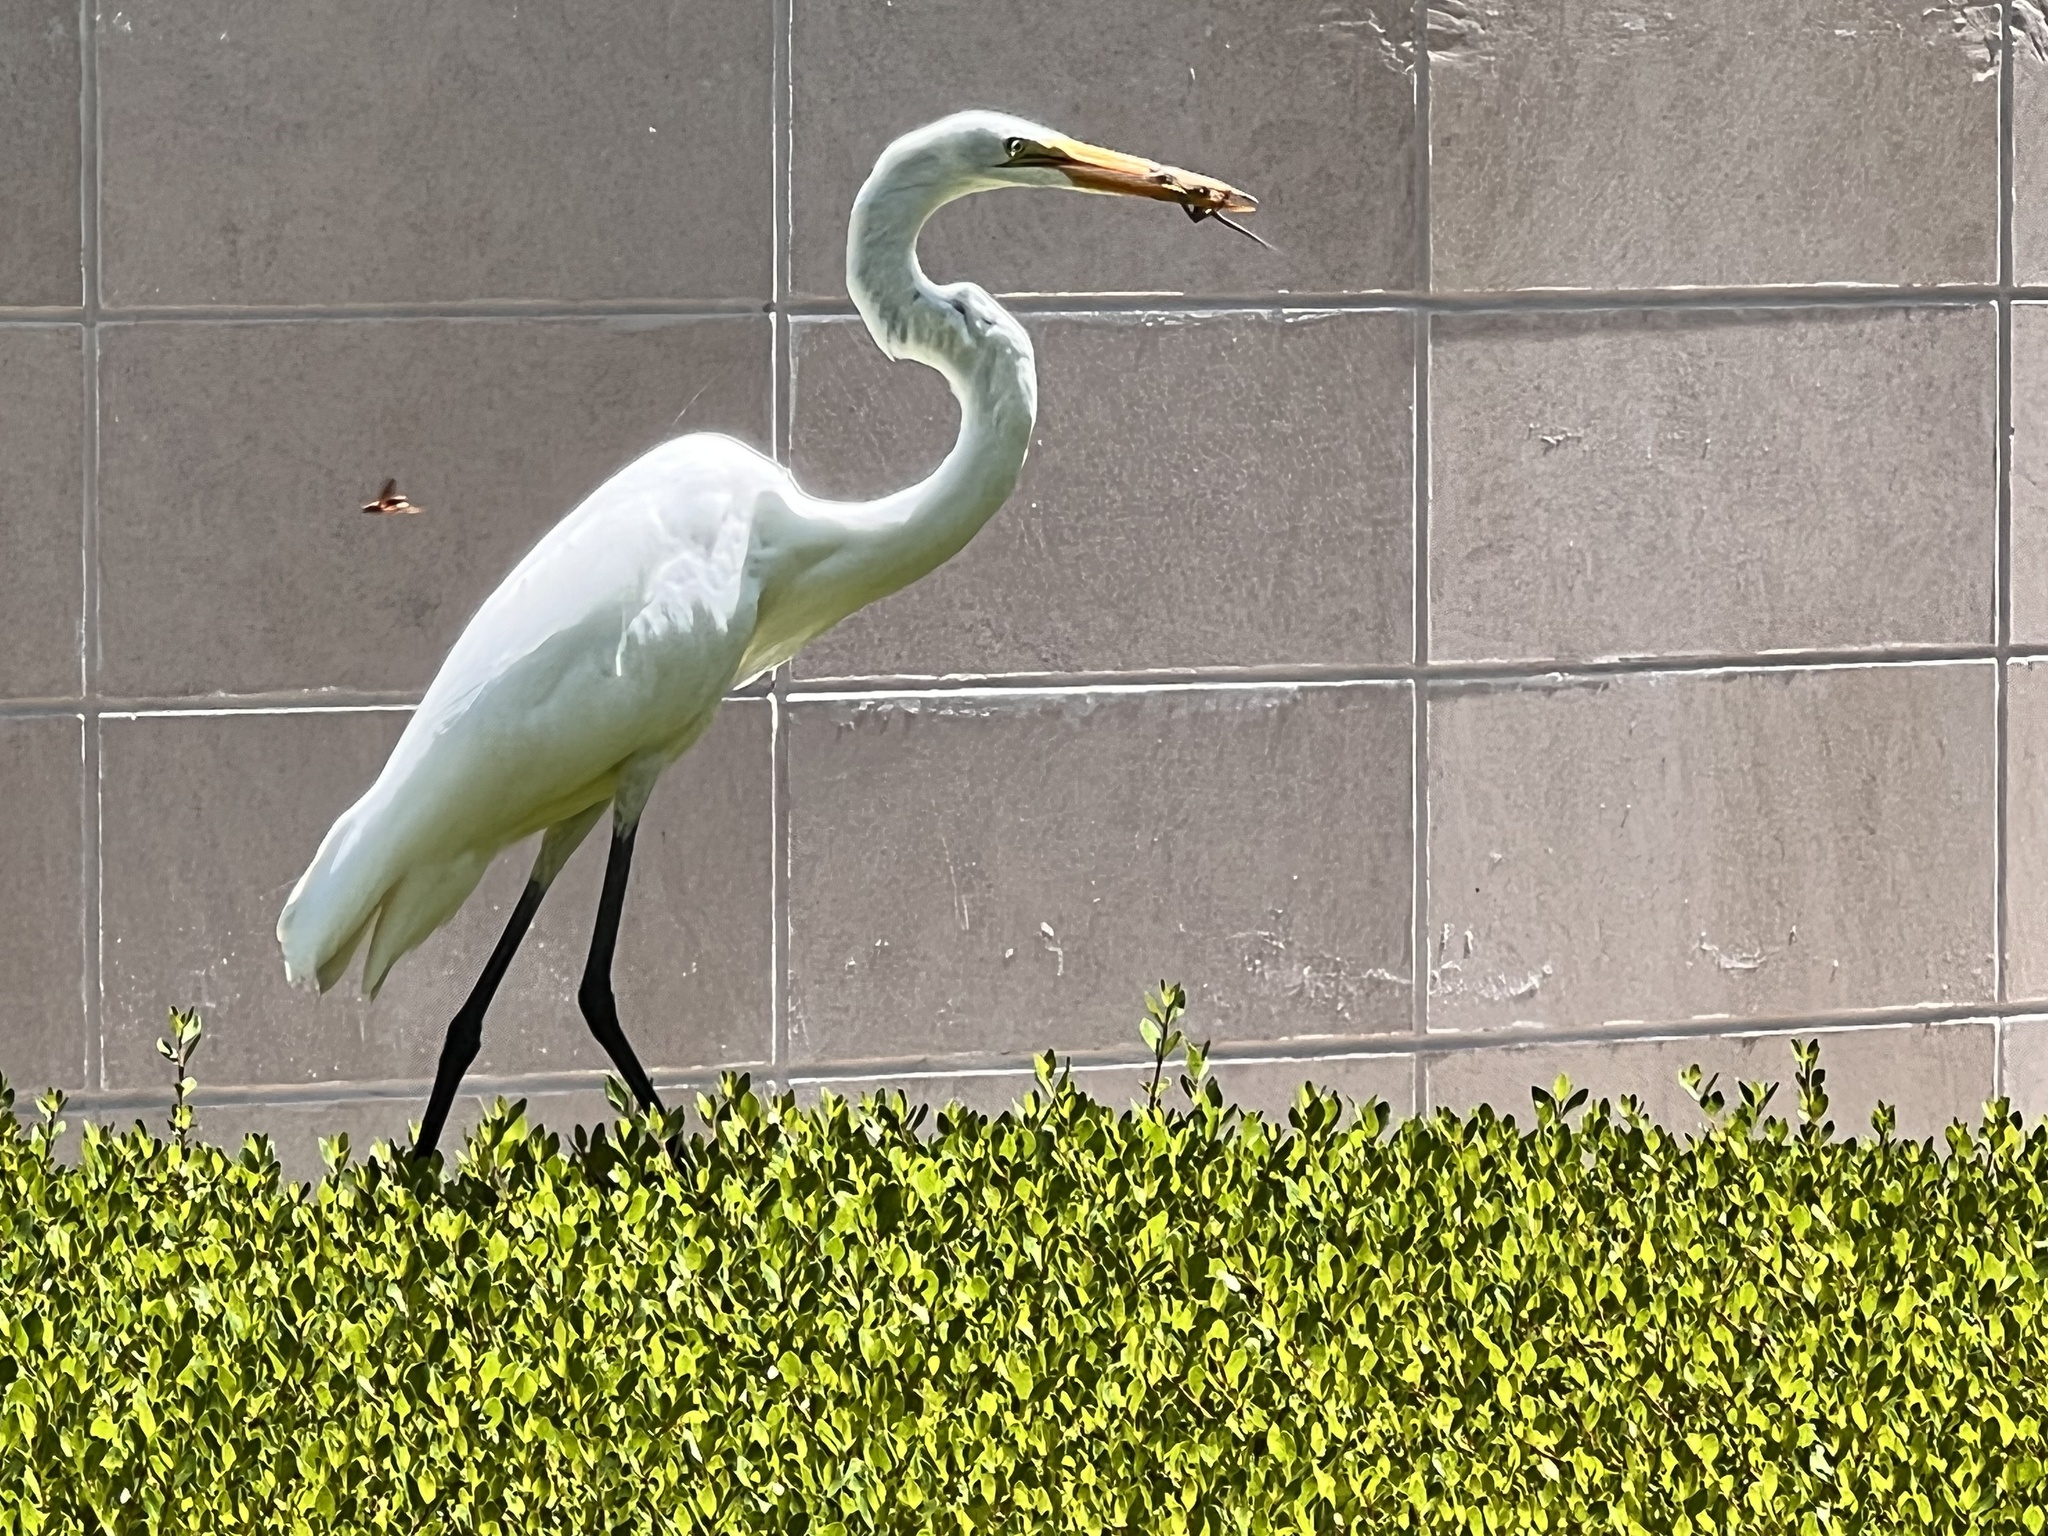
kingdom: Animalia
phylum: Chordata
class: Aves
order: Pelecaniformes
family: Ardeidae
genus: Ardea
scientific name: Ardea alba
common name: Great egret
